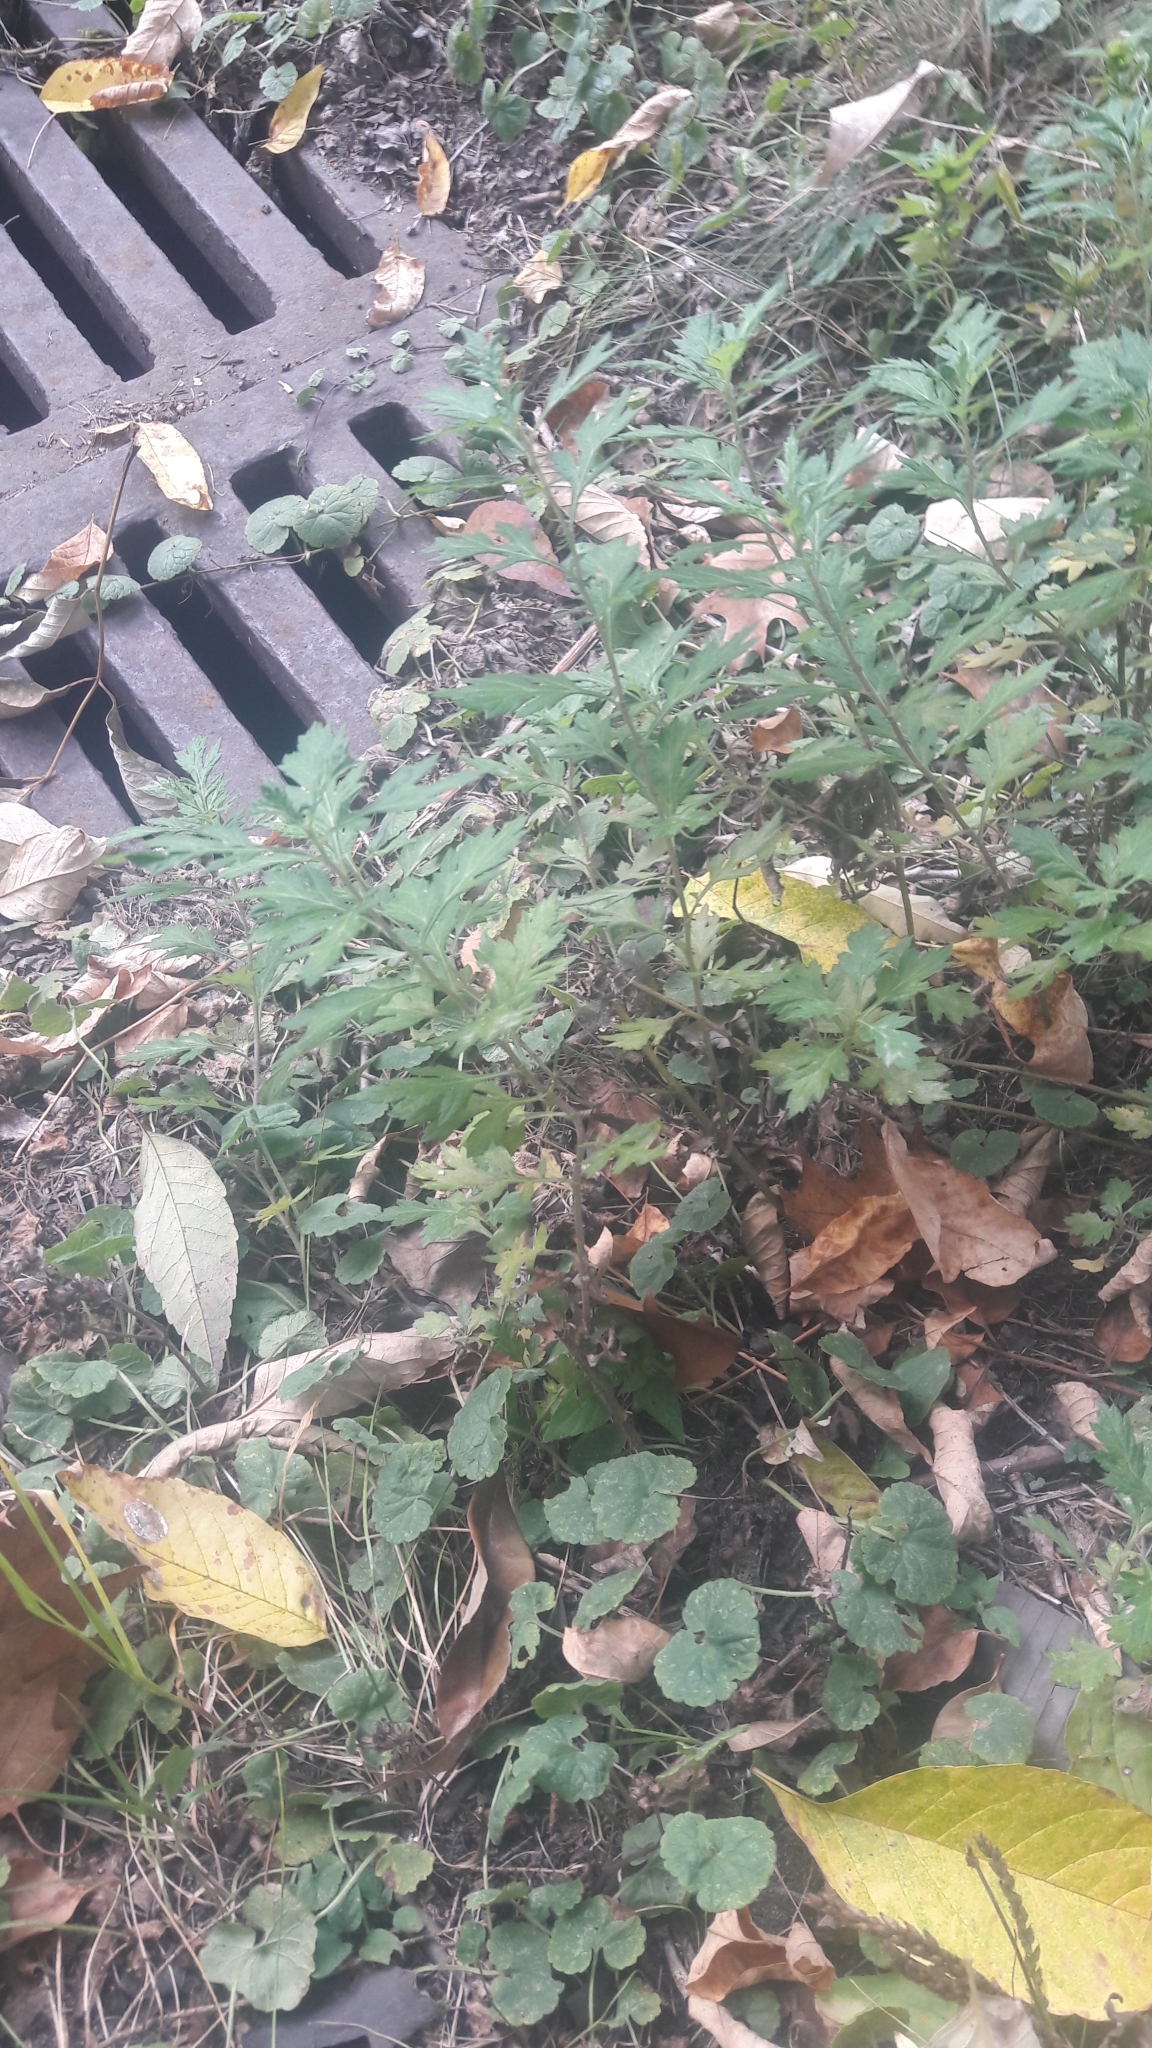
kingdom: Plantae
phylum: Tracheophyta
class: Magnoliopsida
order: Asterales
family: Asteraceae
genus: Artemisia
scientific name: Artemisia vulgaris
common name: Mugwort
